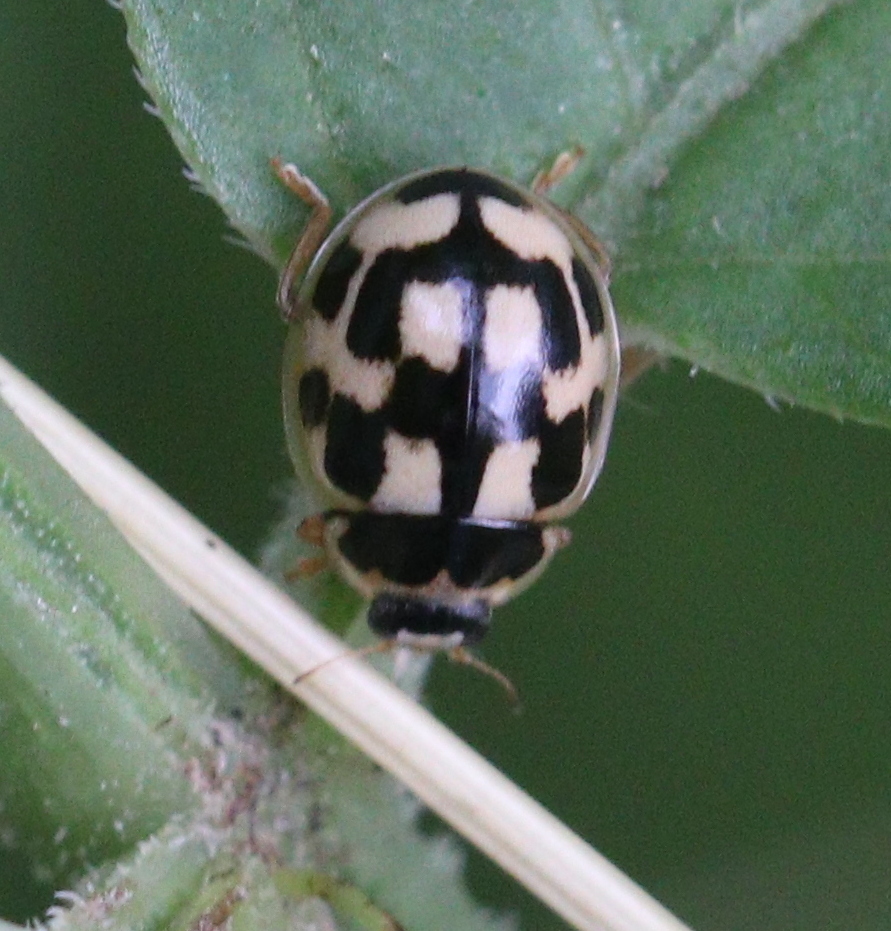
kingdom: Animalia
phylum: Arthropoda
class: Insecta
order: Coleoptera
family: Coccinellidae
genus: Propylaea
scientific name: Propylaea quatuordecimpunctata
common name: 14-spotted ladybird beetle
